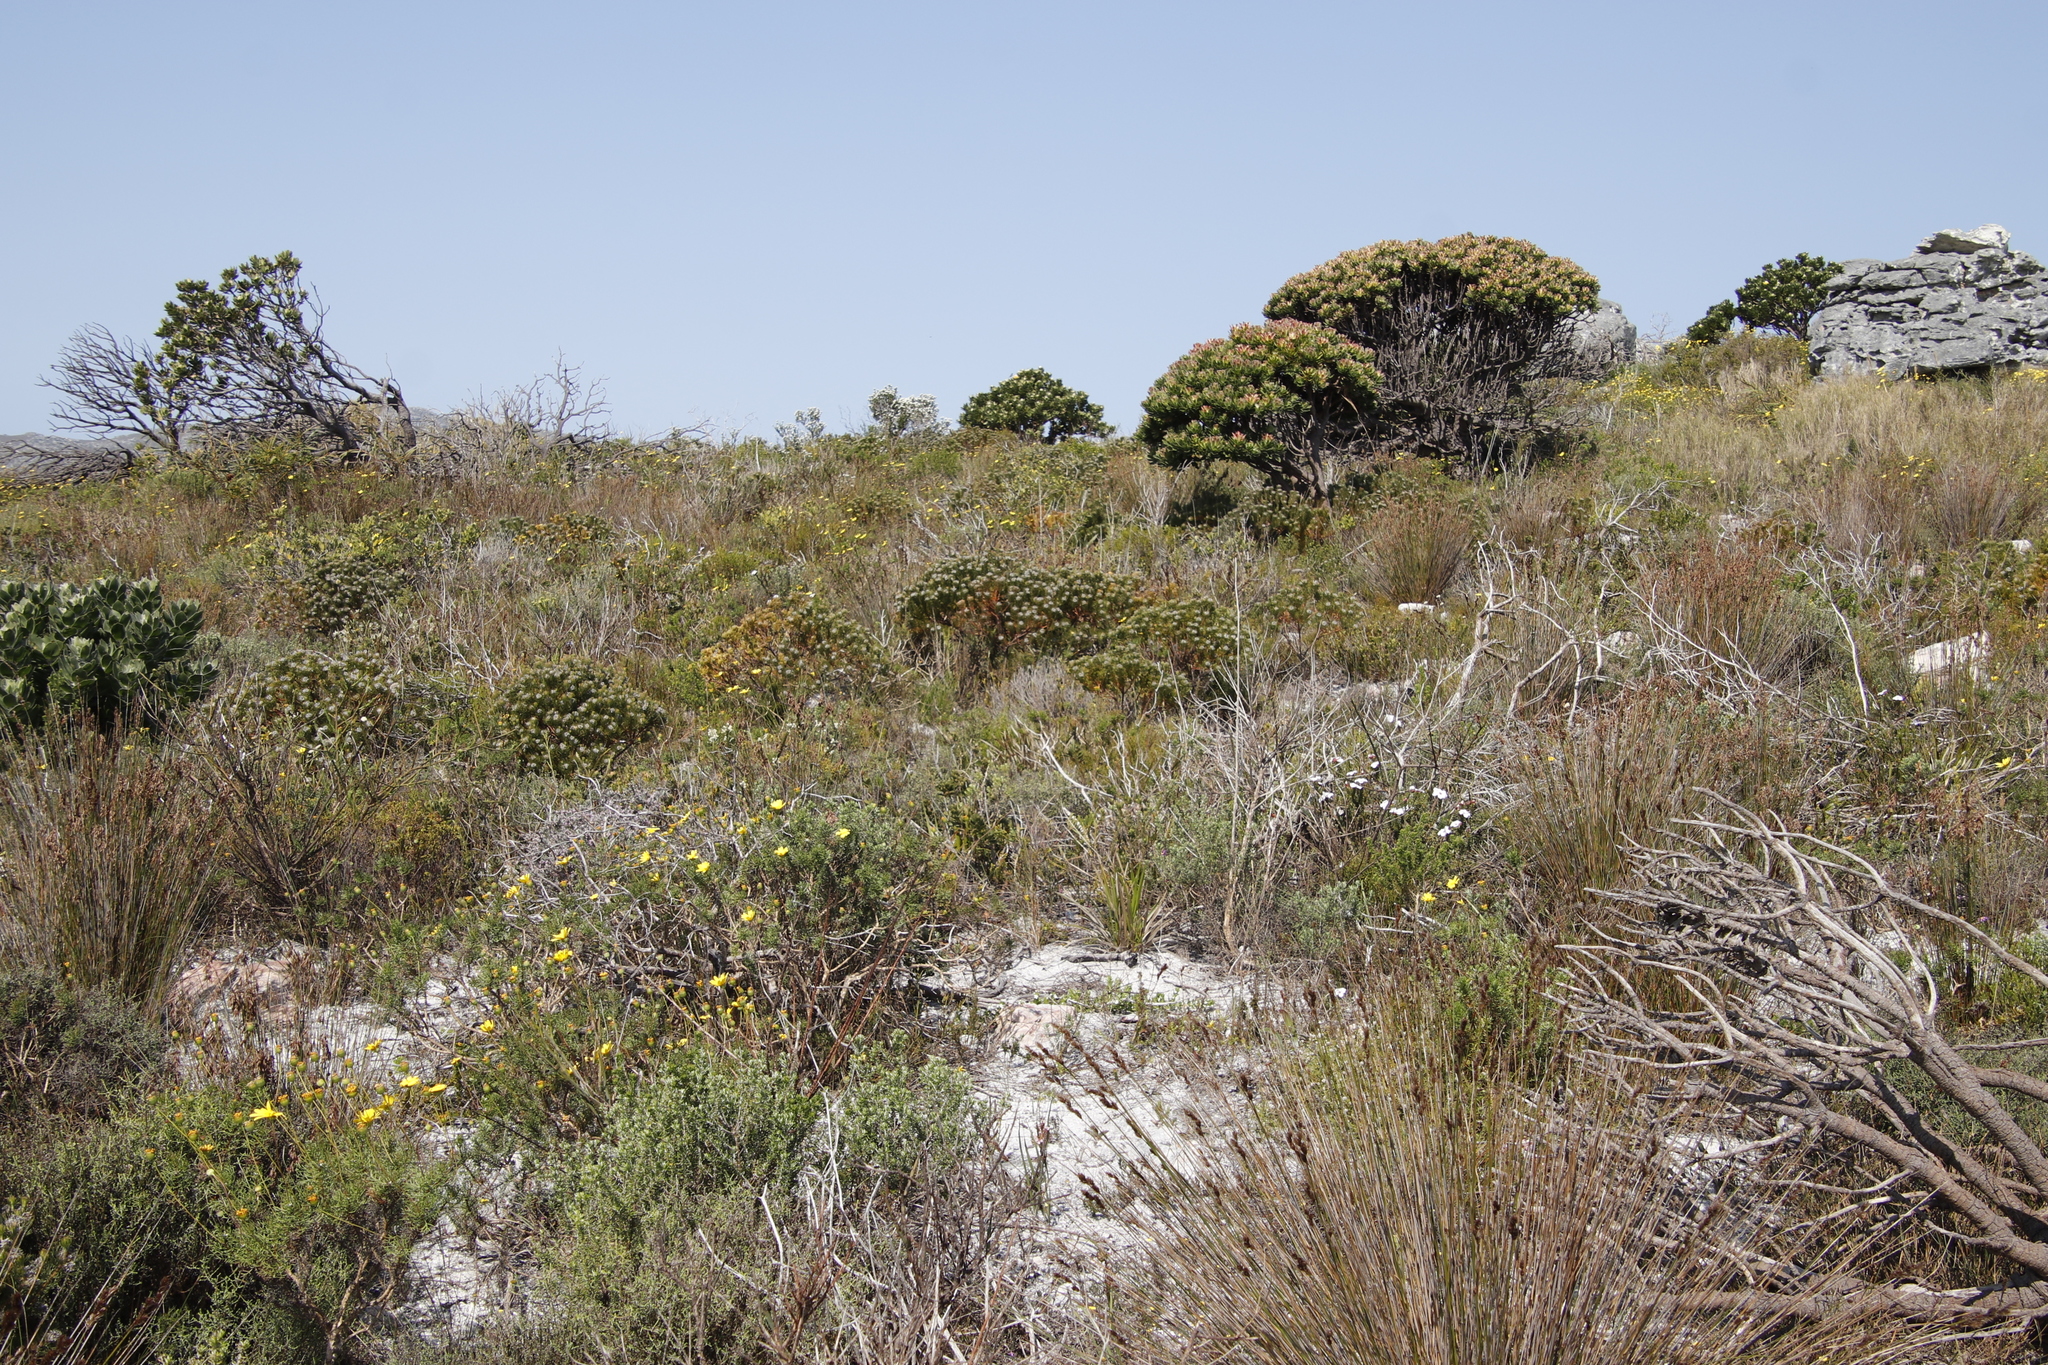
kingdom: Plantae
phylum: Tracheophyta
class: Magnoliopsida
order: Proteales
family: Proteaceae
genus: Mimetes
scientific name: Mimetes fimbriifolius
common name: Fringed bottlebrush
